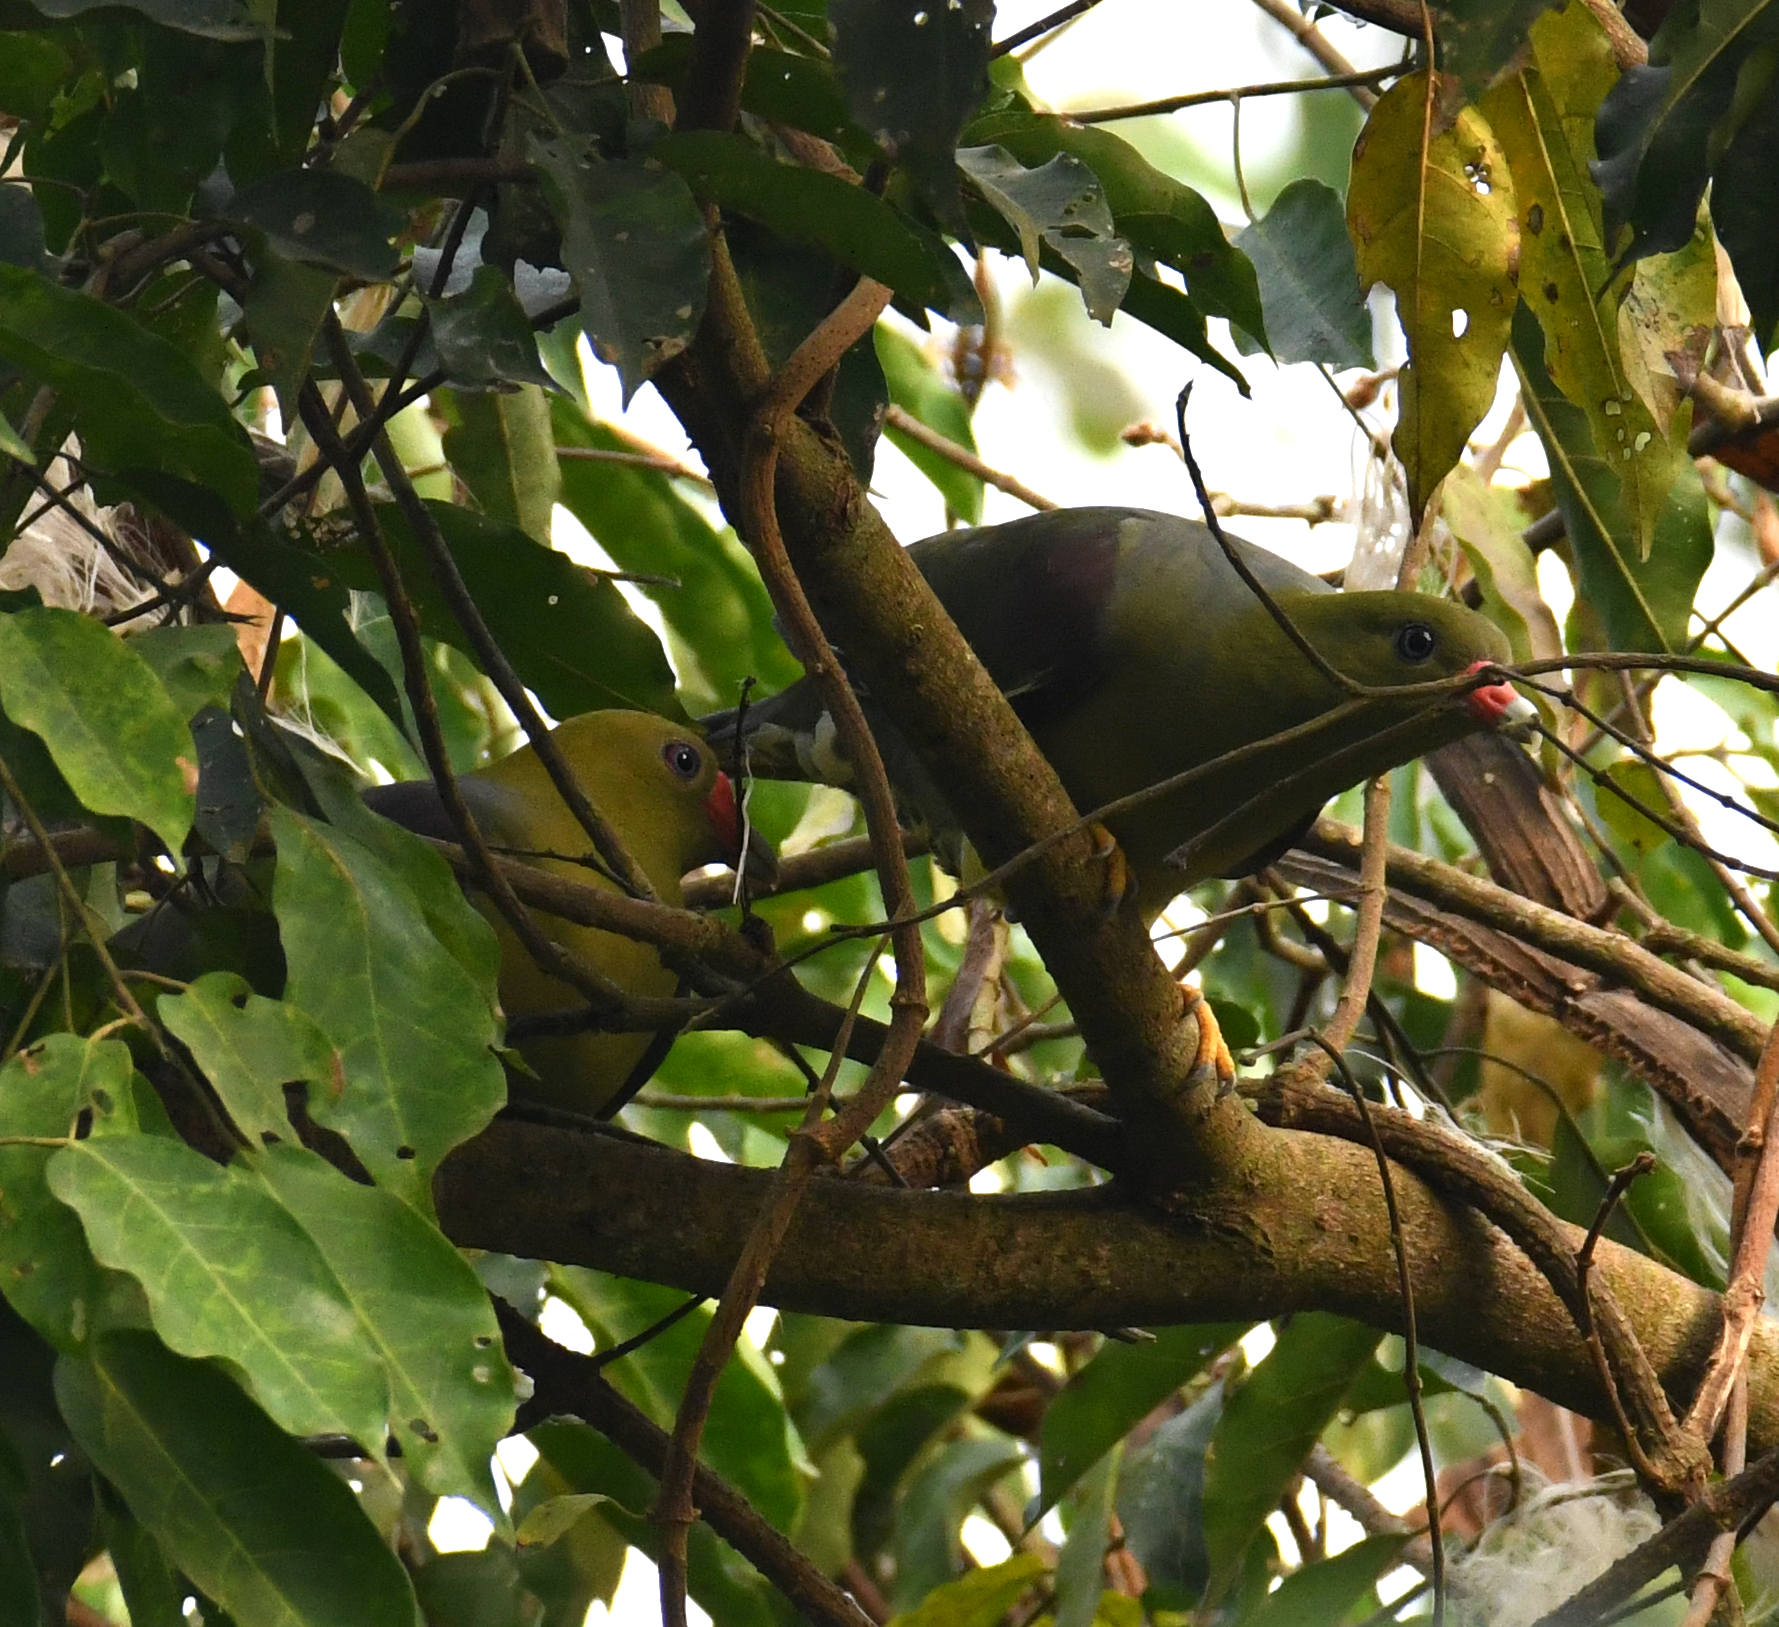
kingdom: Animalia
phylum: Chordata
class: Aves
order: Columbiformes
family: Columbidae
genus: Treron
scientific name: Treron calvus
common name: African green pigeon
